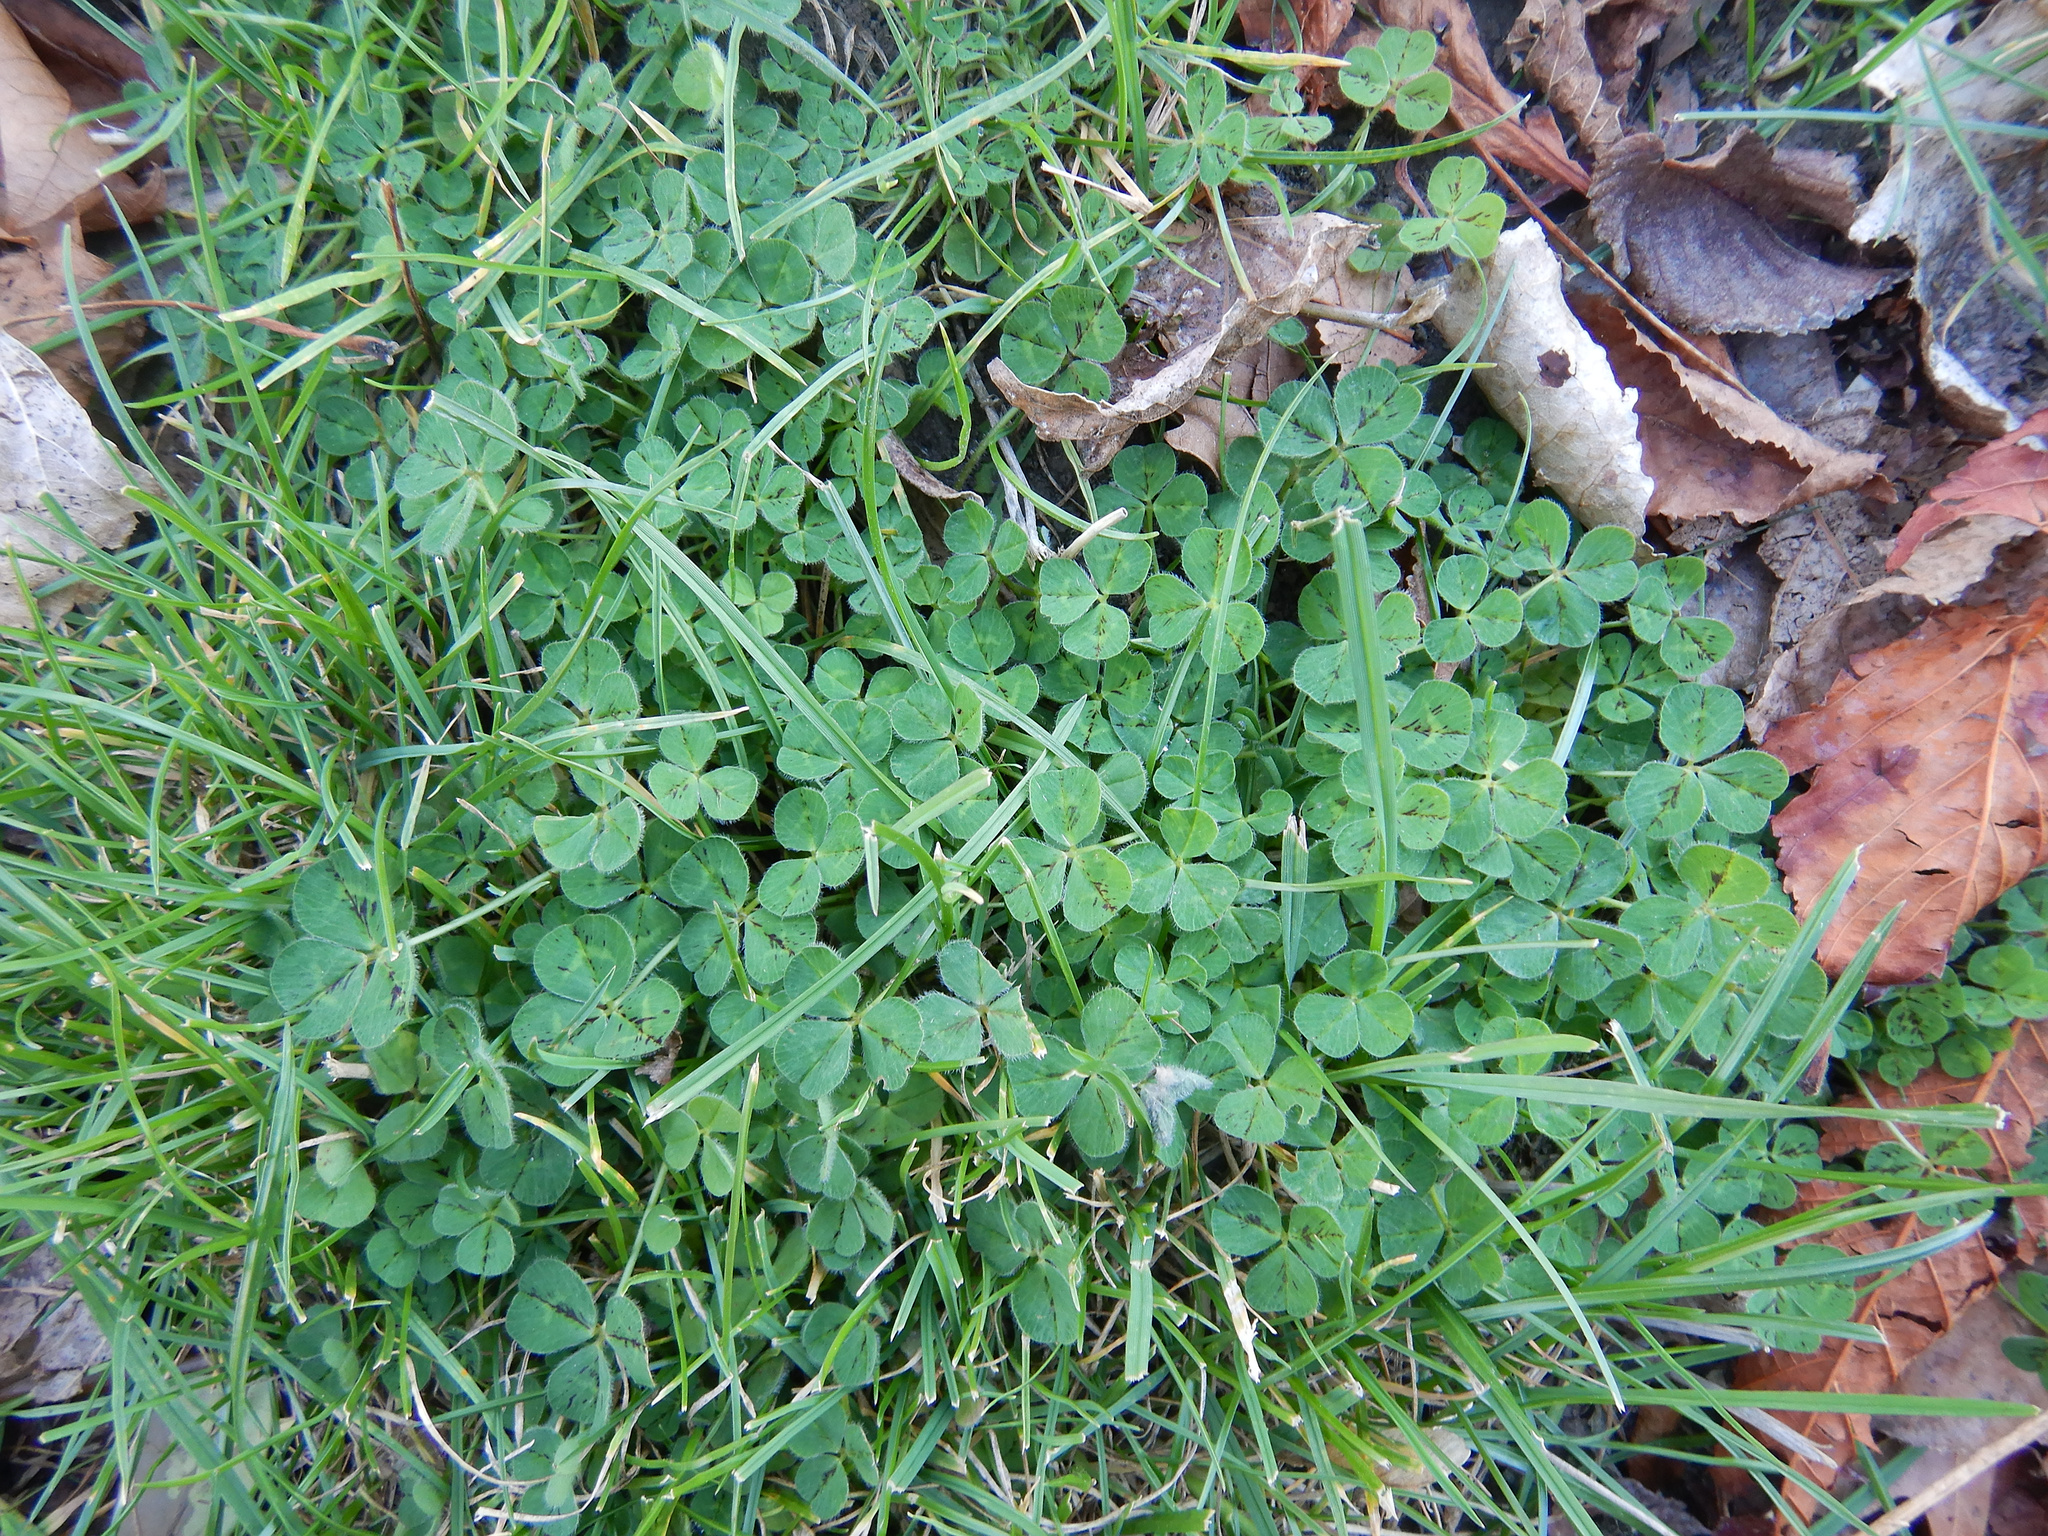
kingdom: Plantae
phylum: Tracheophyta
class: Magnoliopsida
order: Fabales
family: Fabaceae
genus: Trifolium
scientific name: Trifolium subterraneum
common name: Subterranean clover
